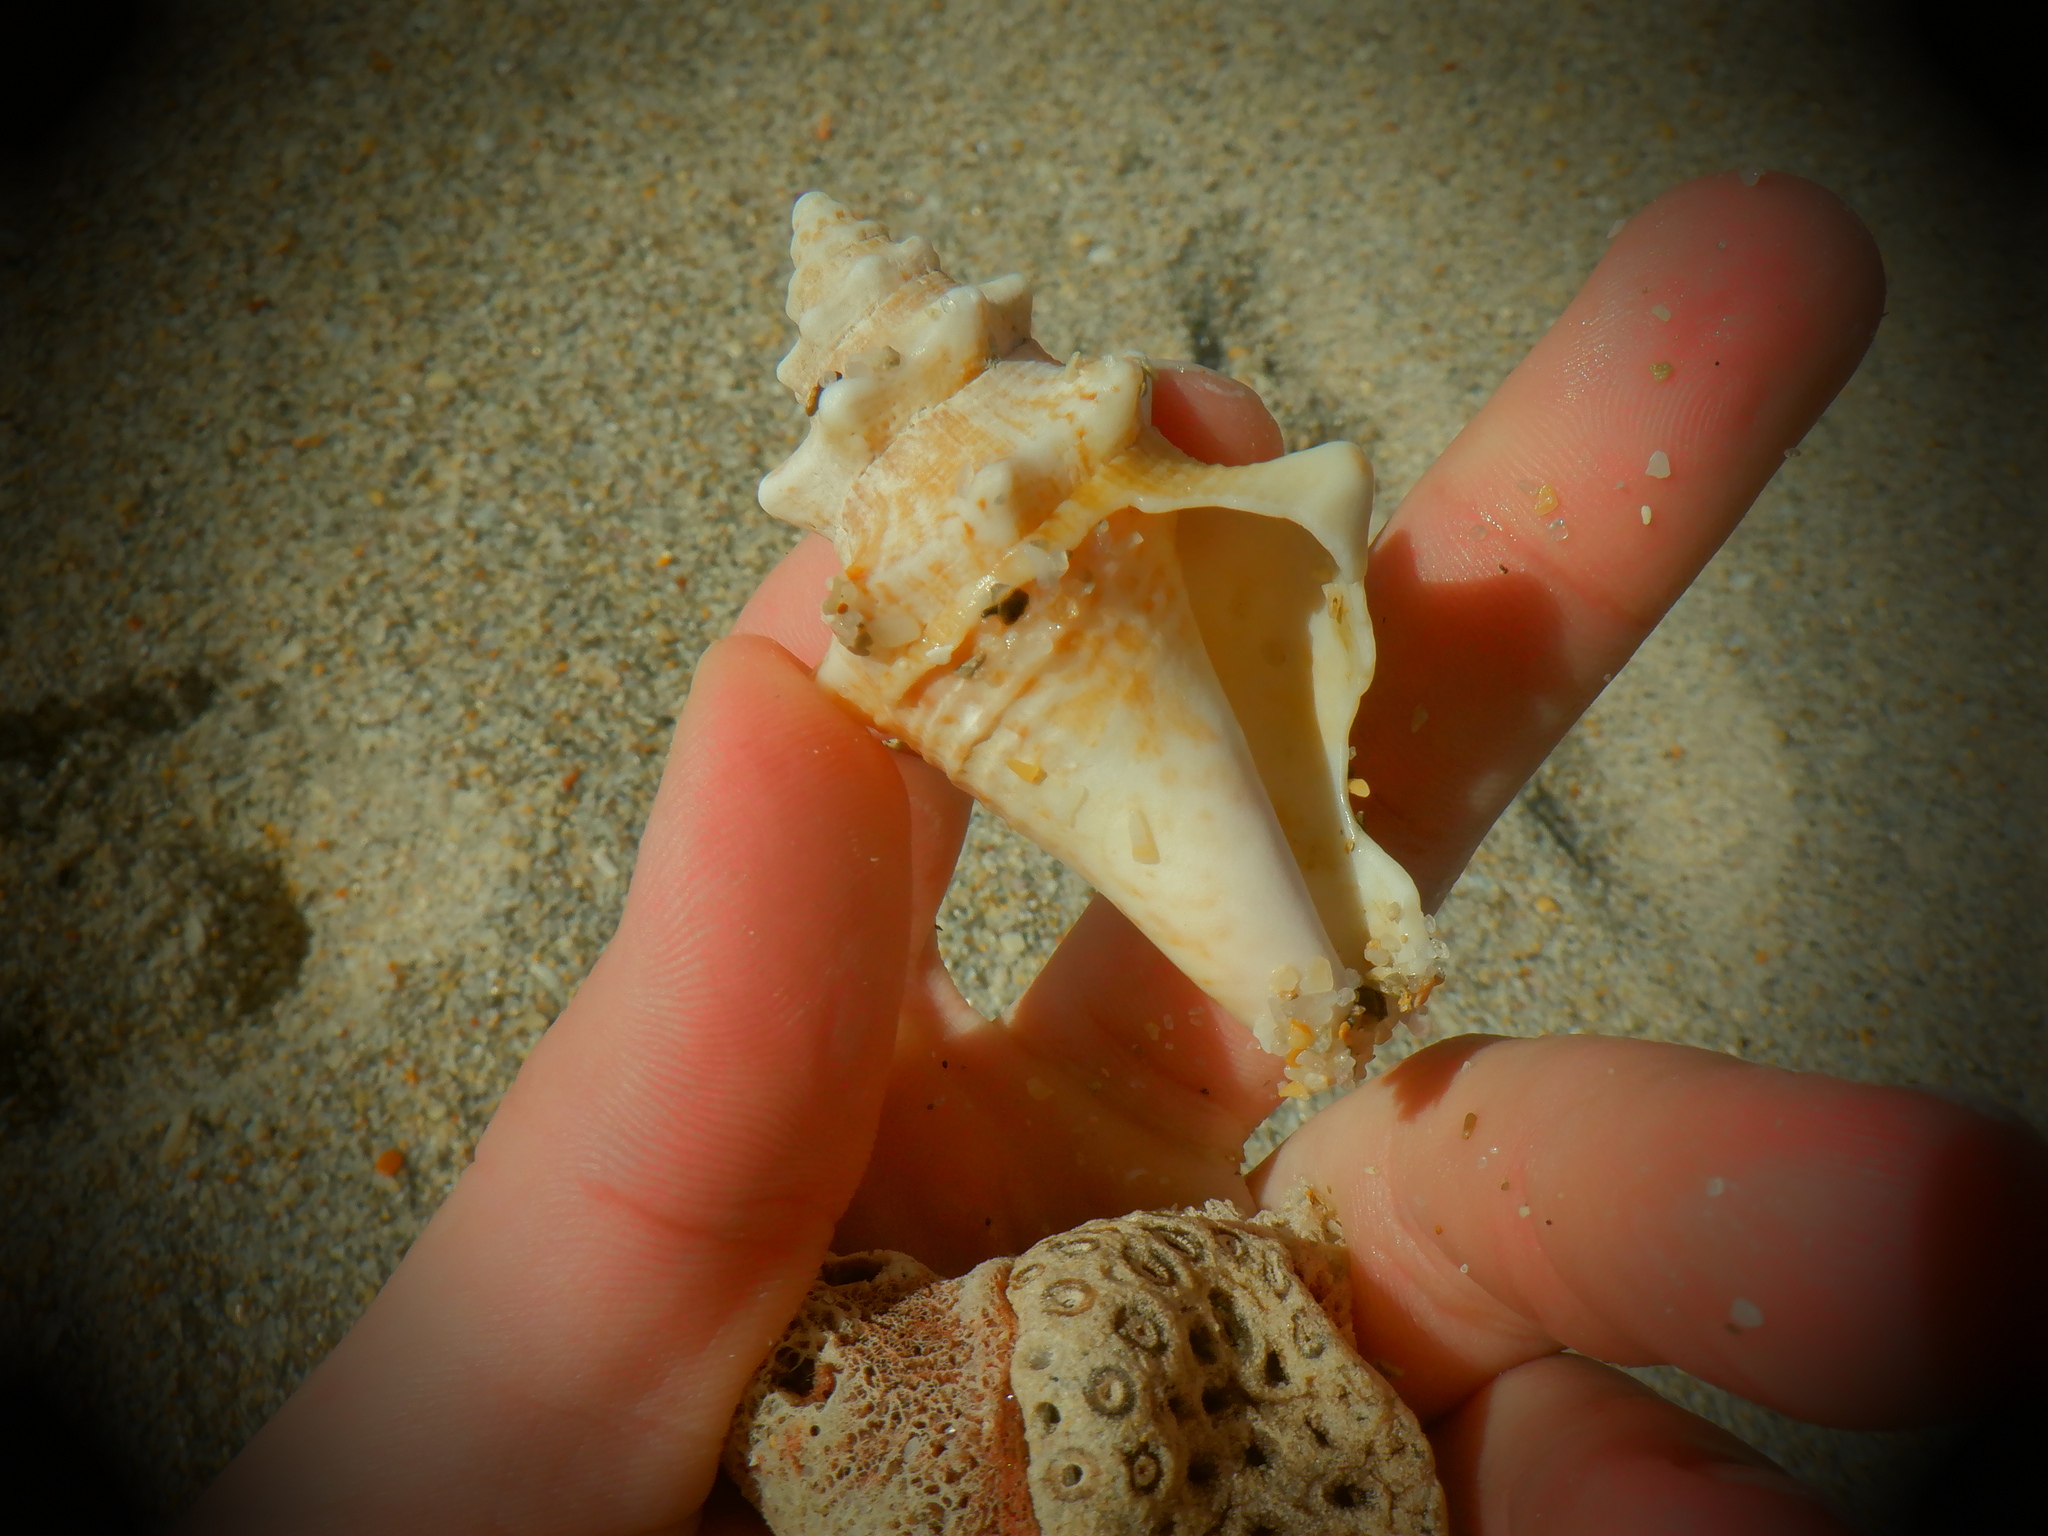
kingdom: Animalia
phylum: Mollusca
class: Gastropoda
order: Littorinimorpha
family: Strombidae
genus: Aliger
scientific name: Aliger gigas
